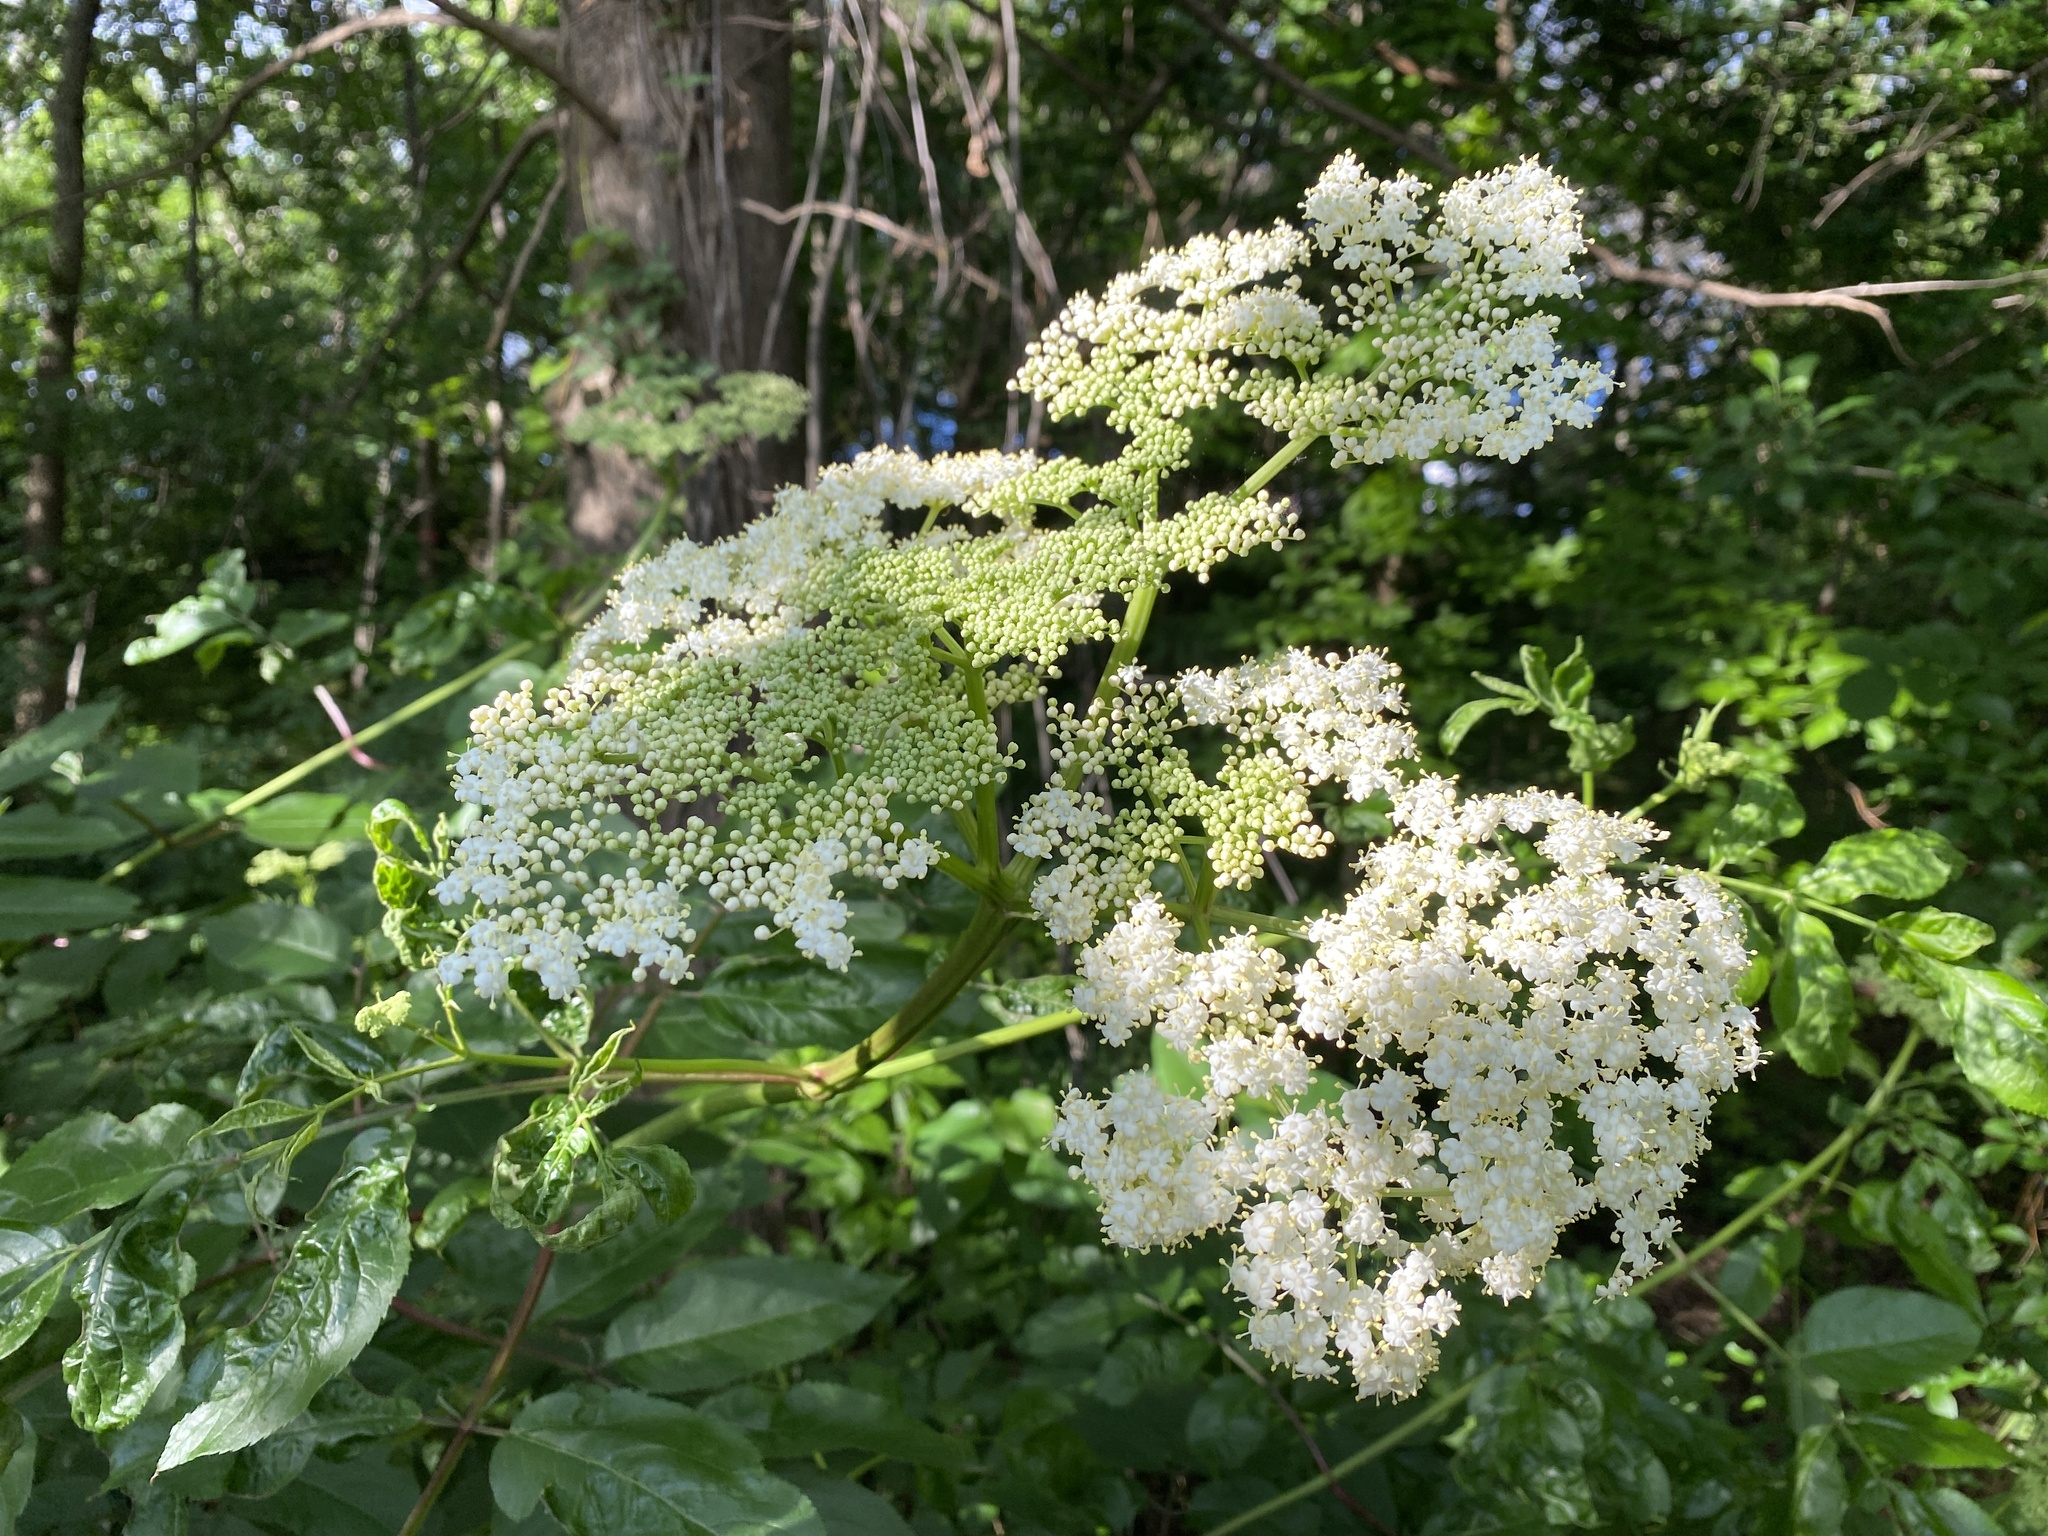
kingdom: Plantae
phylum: Tracheophyta
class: Magnoliopsida
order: Dipsacales
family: Viburnaceae
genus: Sambucus
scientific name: Sambucus canadensis
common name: American elder
